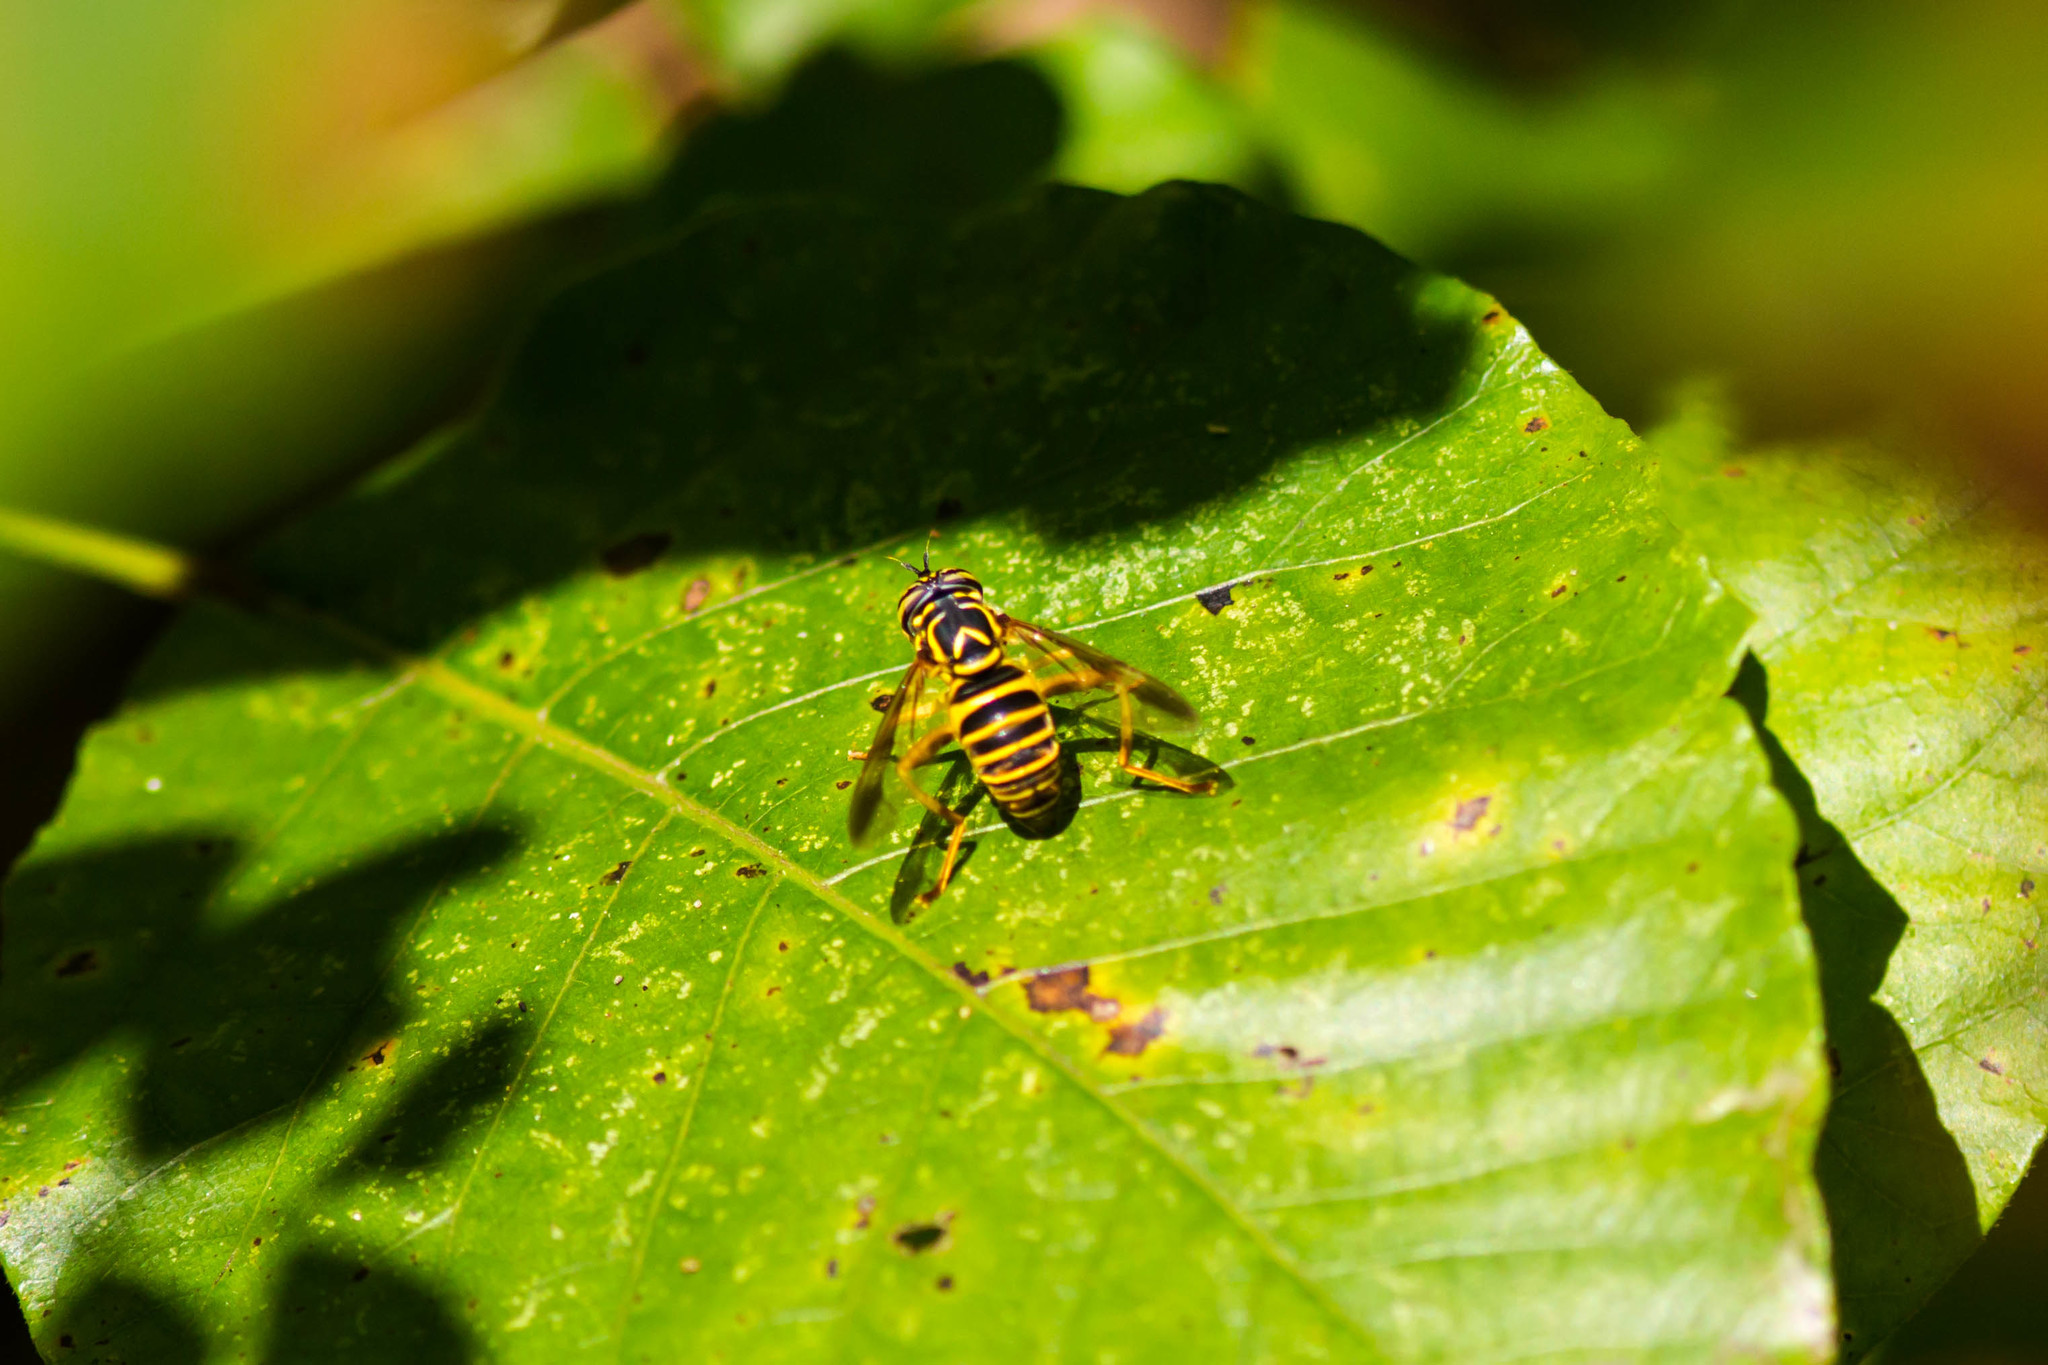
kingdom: Animalia
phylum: Arthropoda
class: Insecta
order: Diptera
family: Syrphidae
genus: Spilomyia
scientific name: Spilomyia longicornis
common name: Eastern hornet fly
